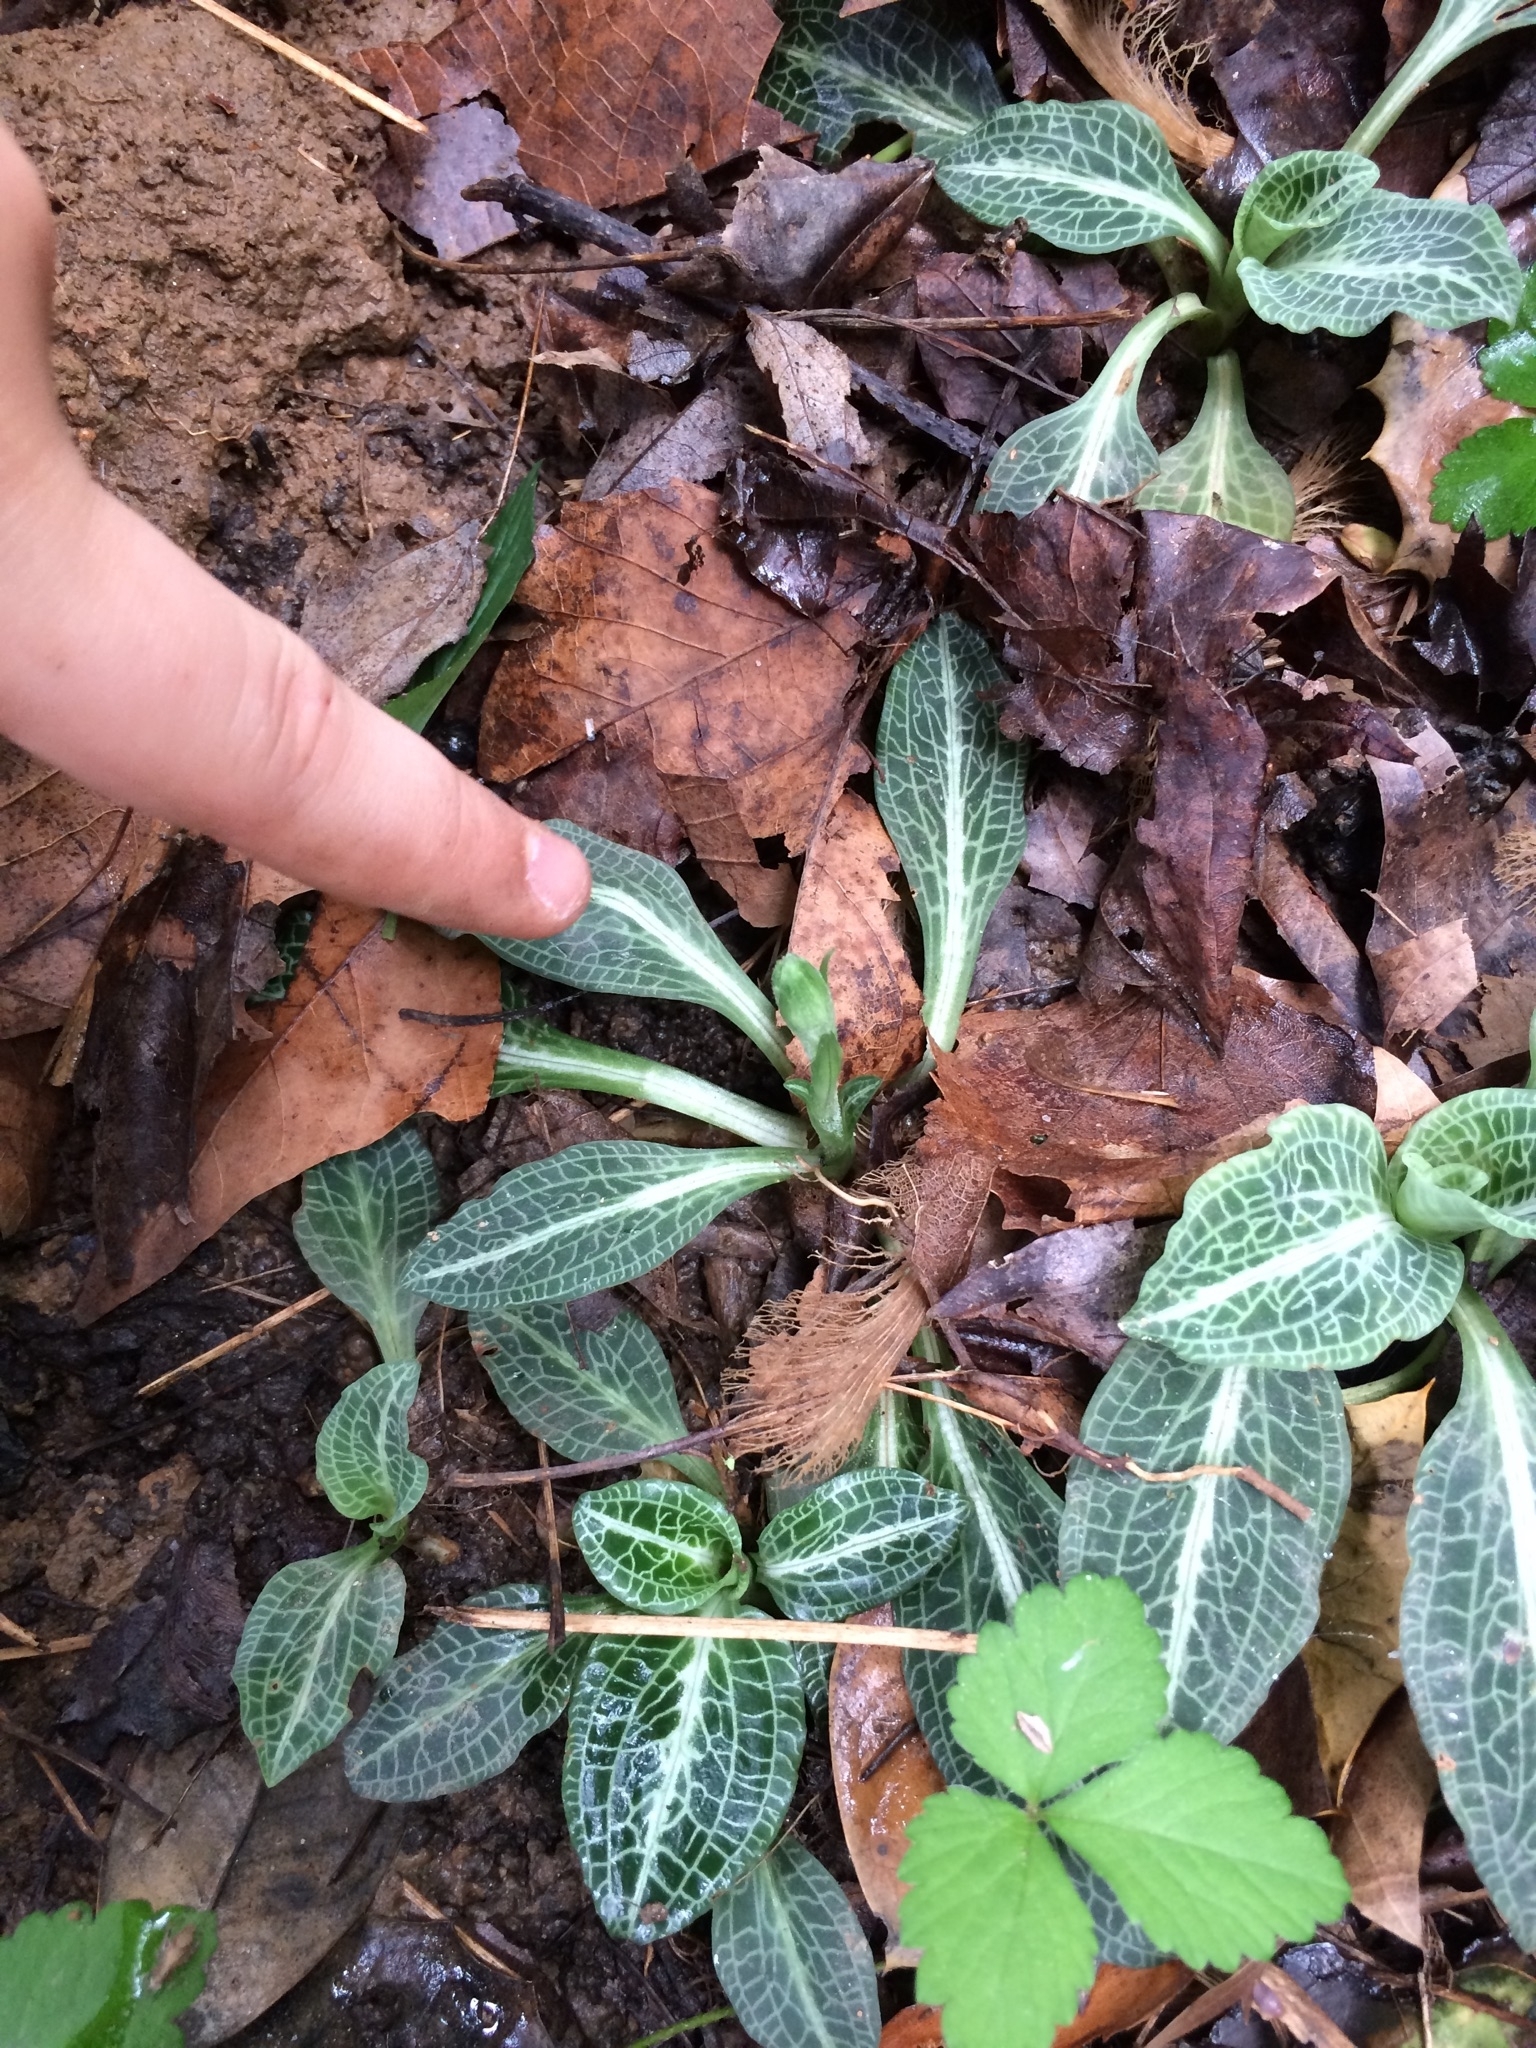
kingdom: Plantae
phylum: Tracheophyta
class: Liliopsida
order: Asparagales
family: Orchidaceae
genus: Goodyera
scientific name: Goodyera pubescens
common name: Downy rattlesnake-plantain
